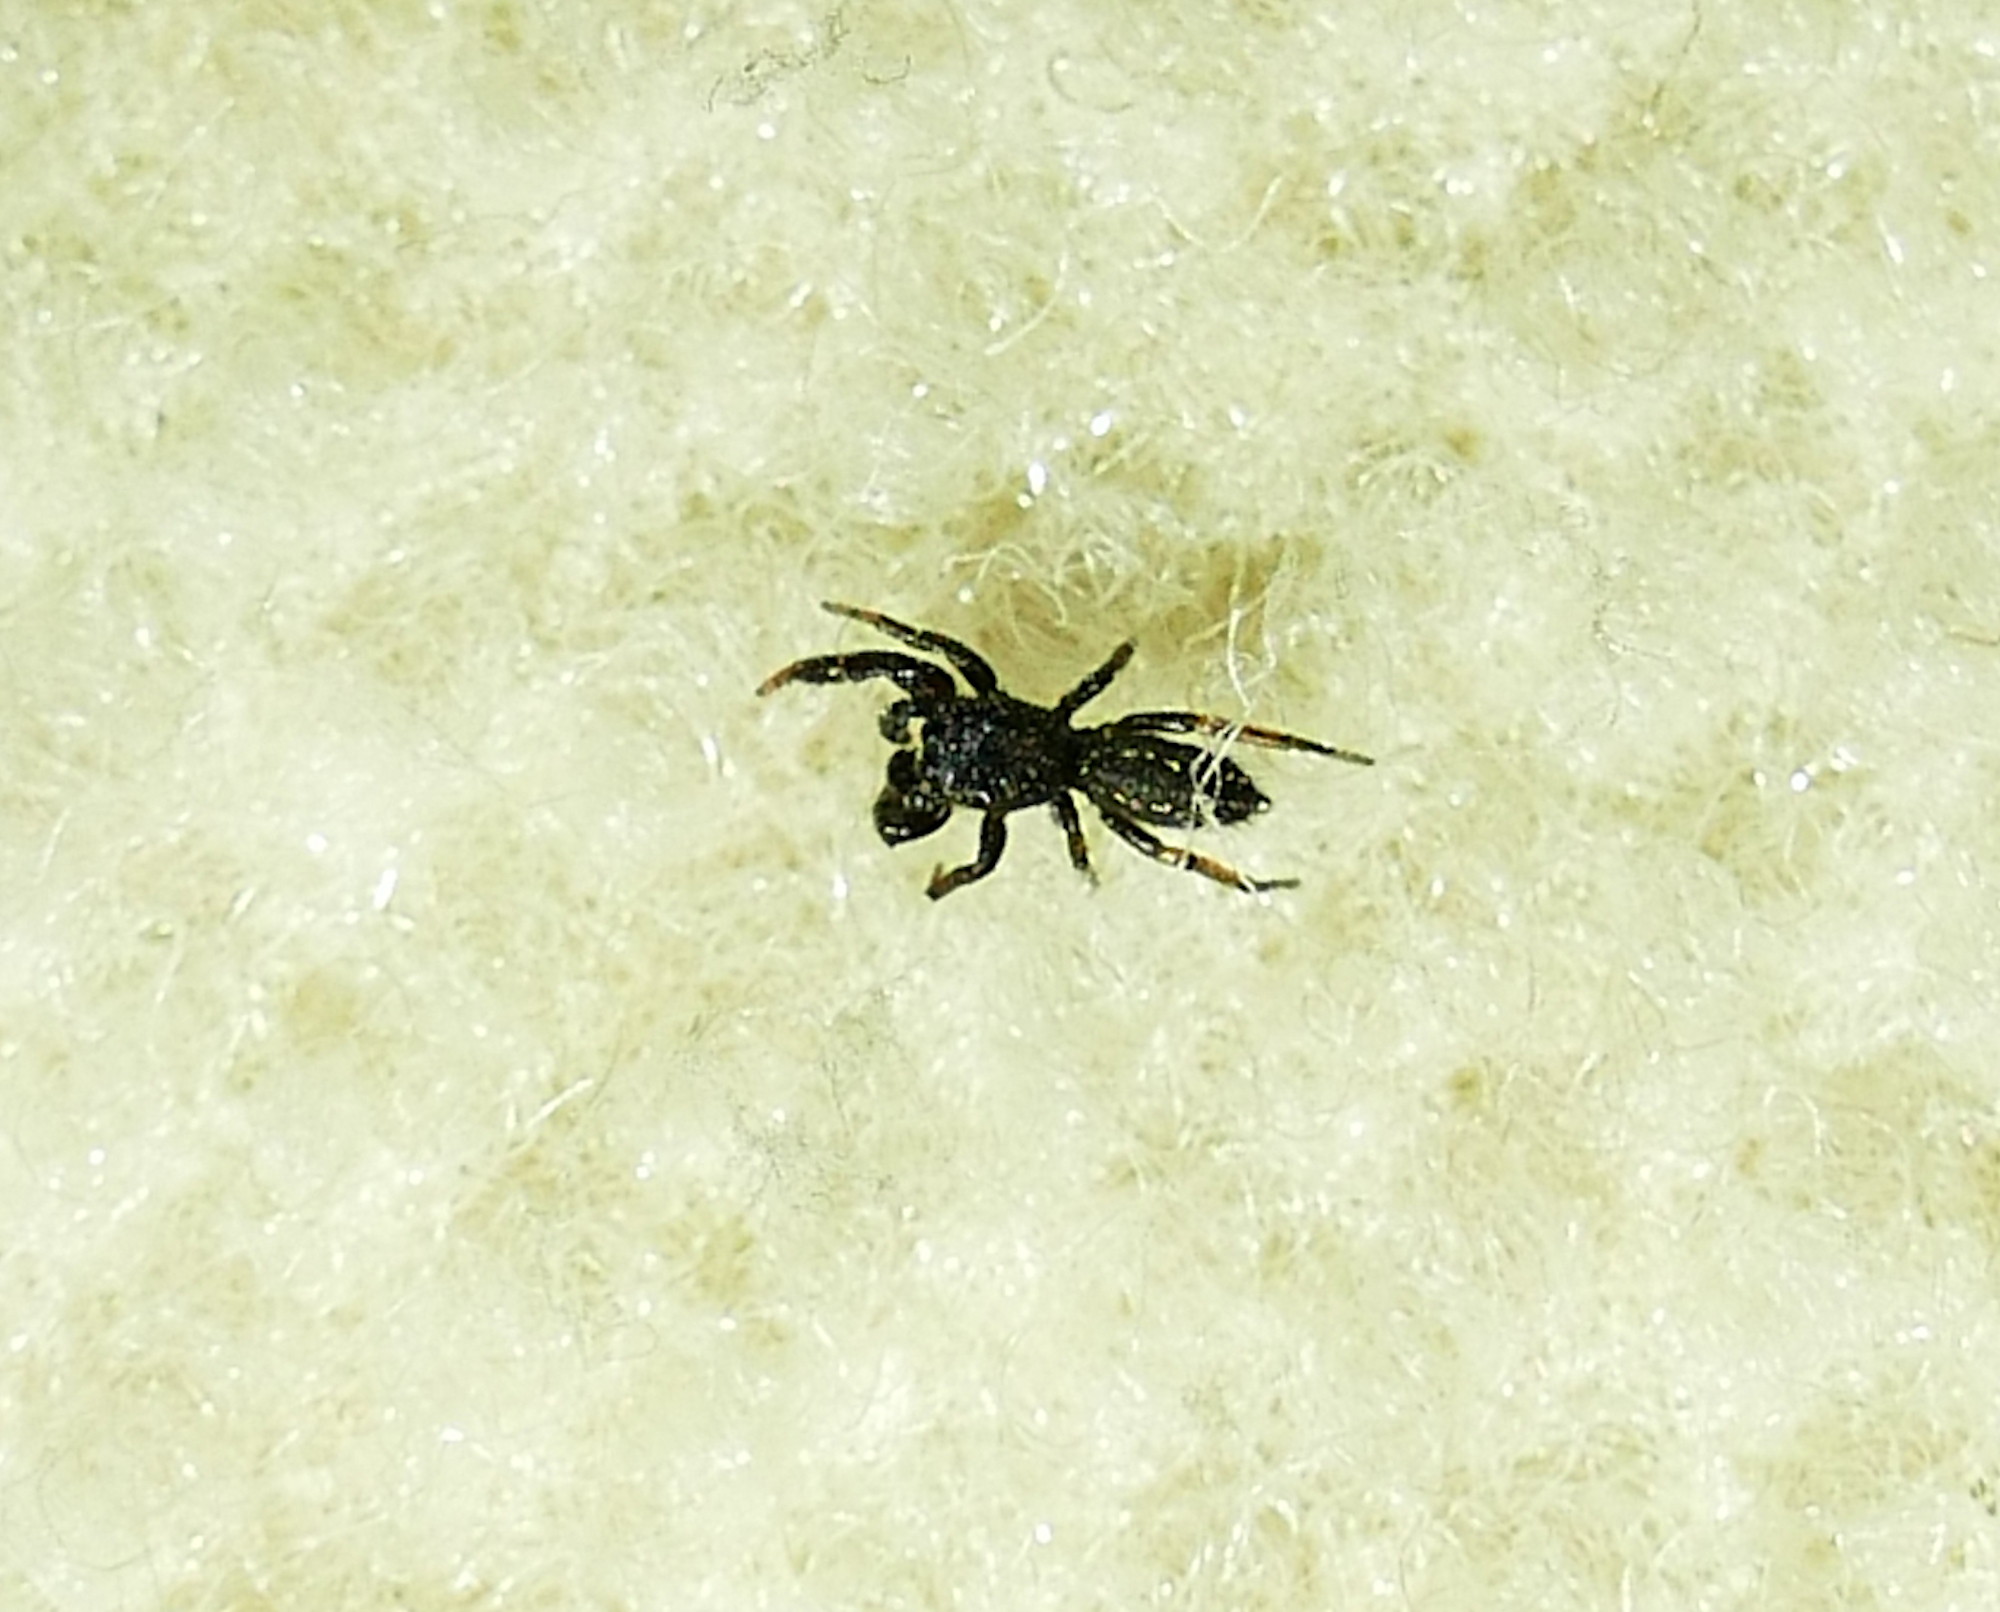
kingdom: Animalia
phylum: Arthropoda
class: Arachnida
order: Araneae
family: Salticidae
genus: Metacyrba
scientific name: Metacyrba taeniola
